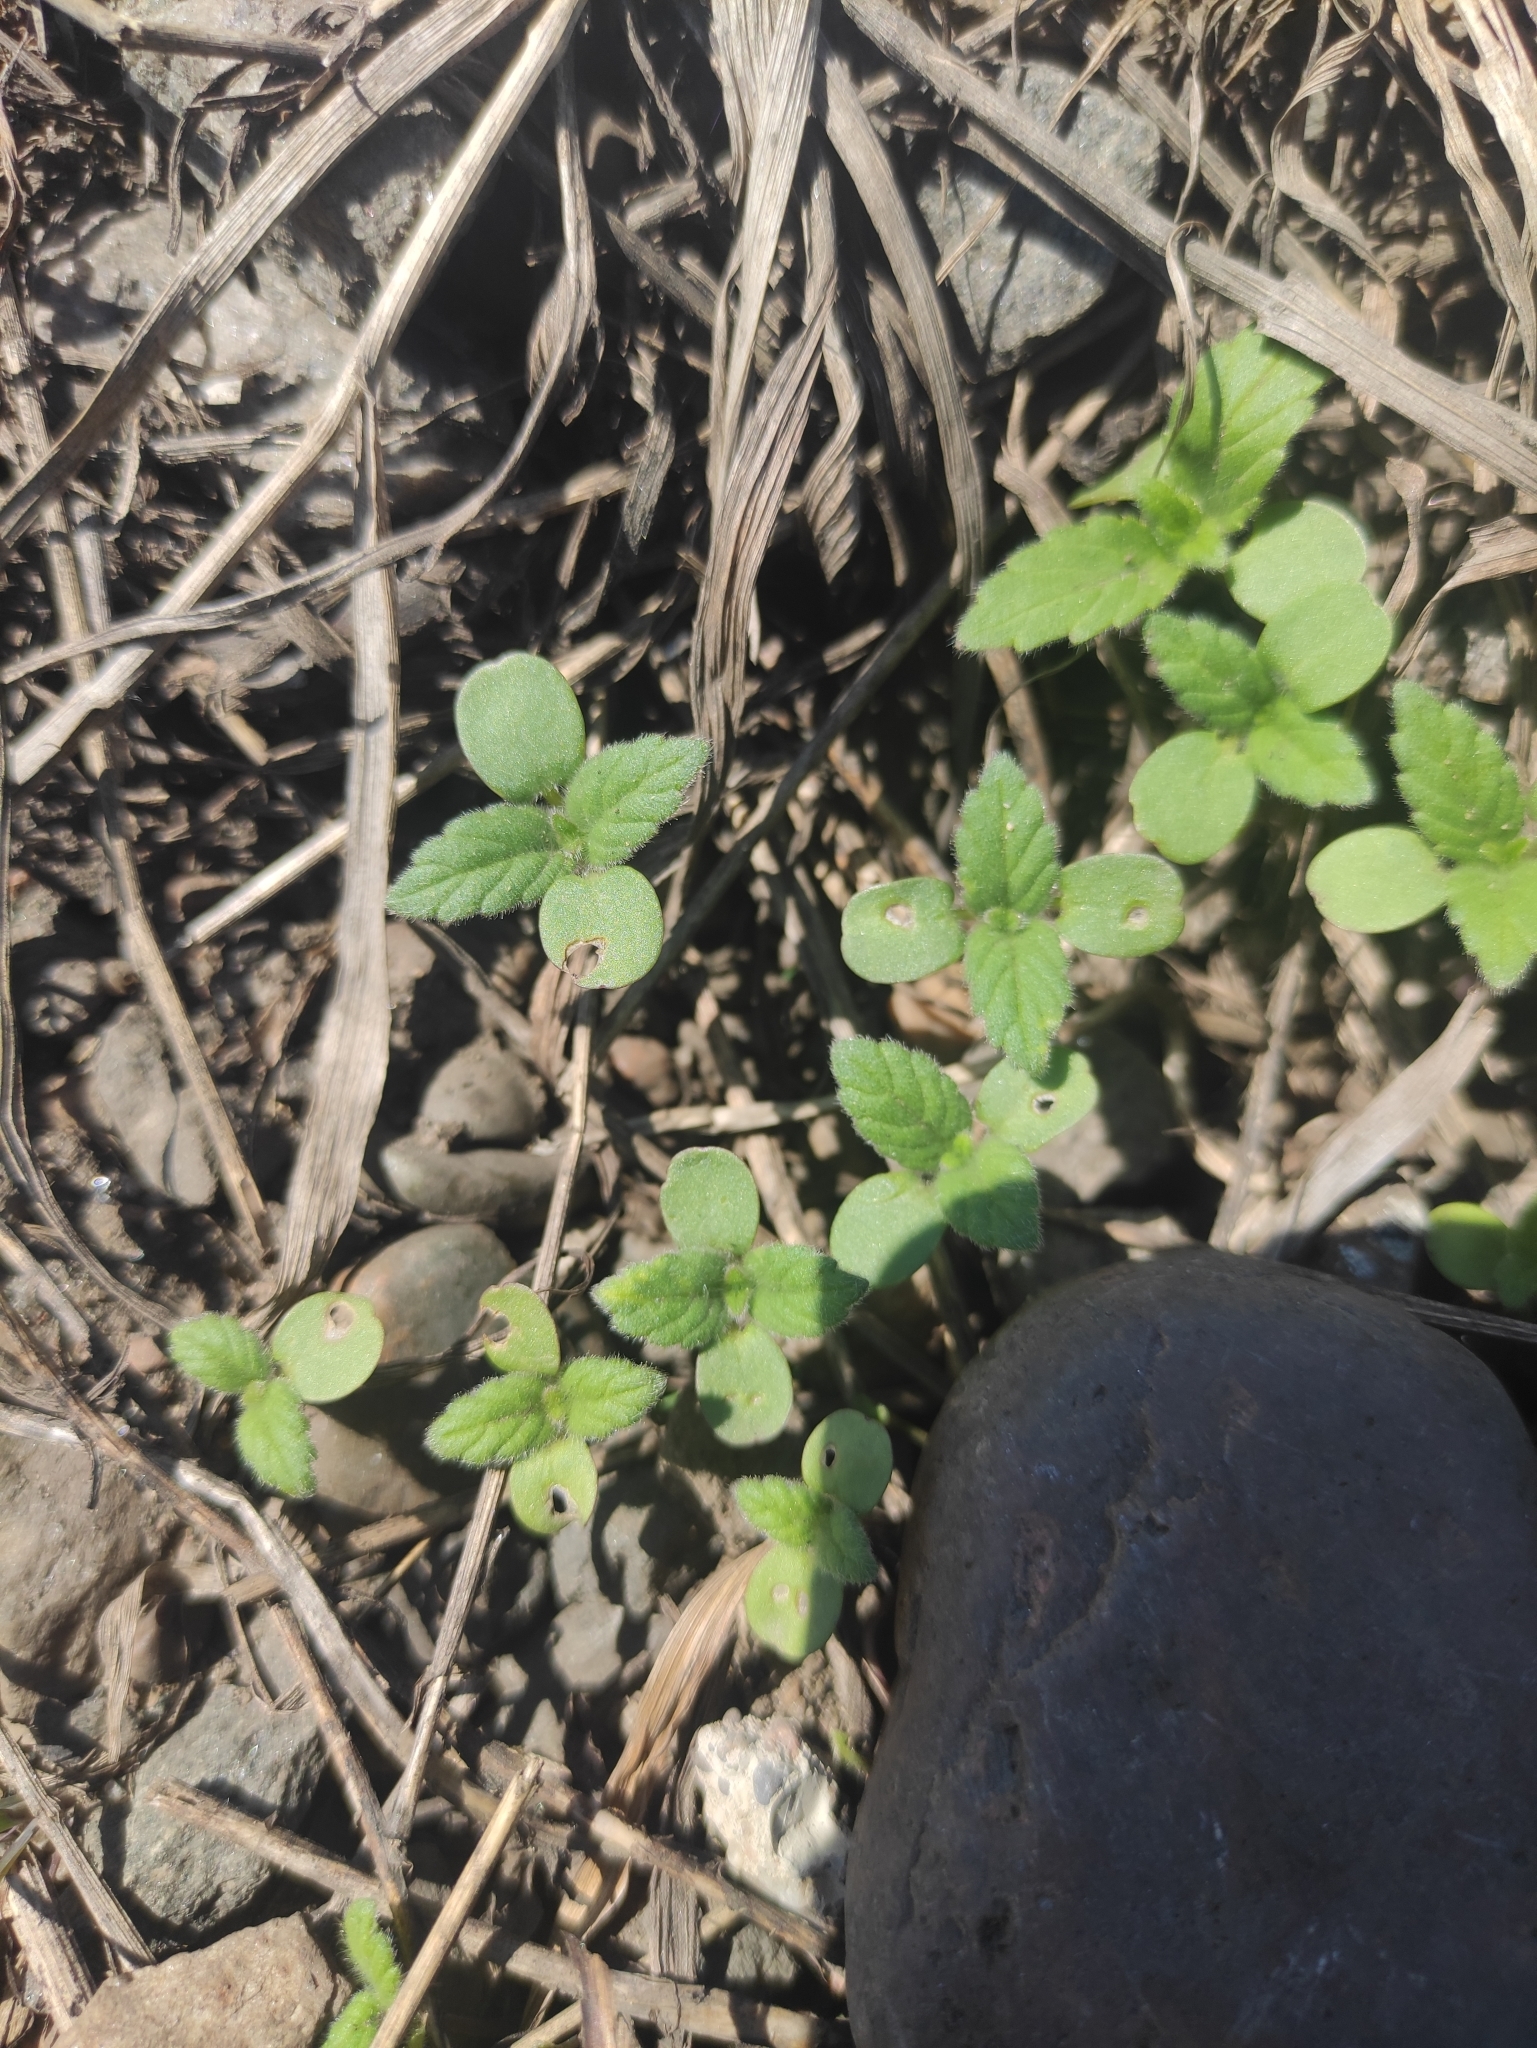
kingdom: Plantae
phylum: Tracheophyta
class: Magnoliopsida
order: Lamiales
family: Lamiaceae
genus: Galeopsis
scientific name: Galeopsis bifida
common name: Bifid hemp-nettle
